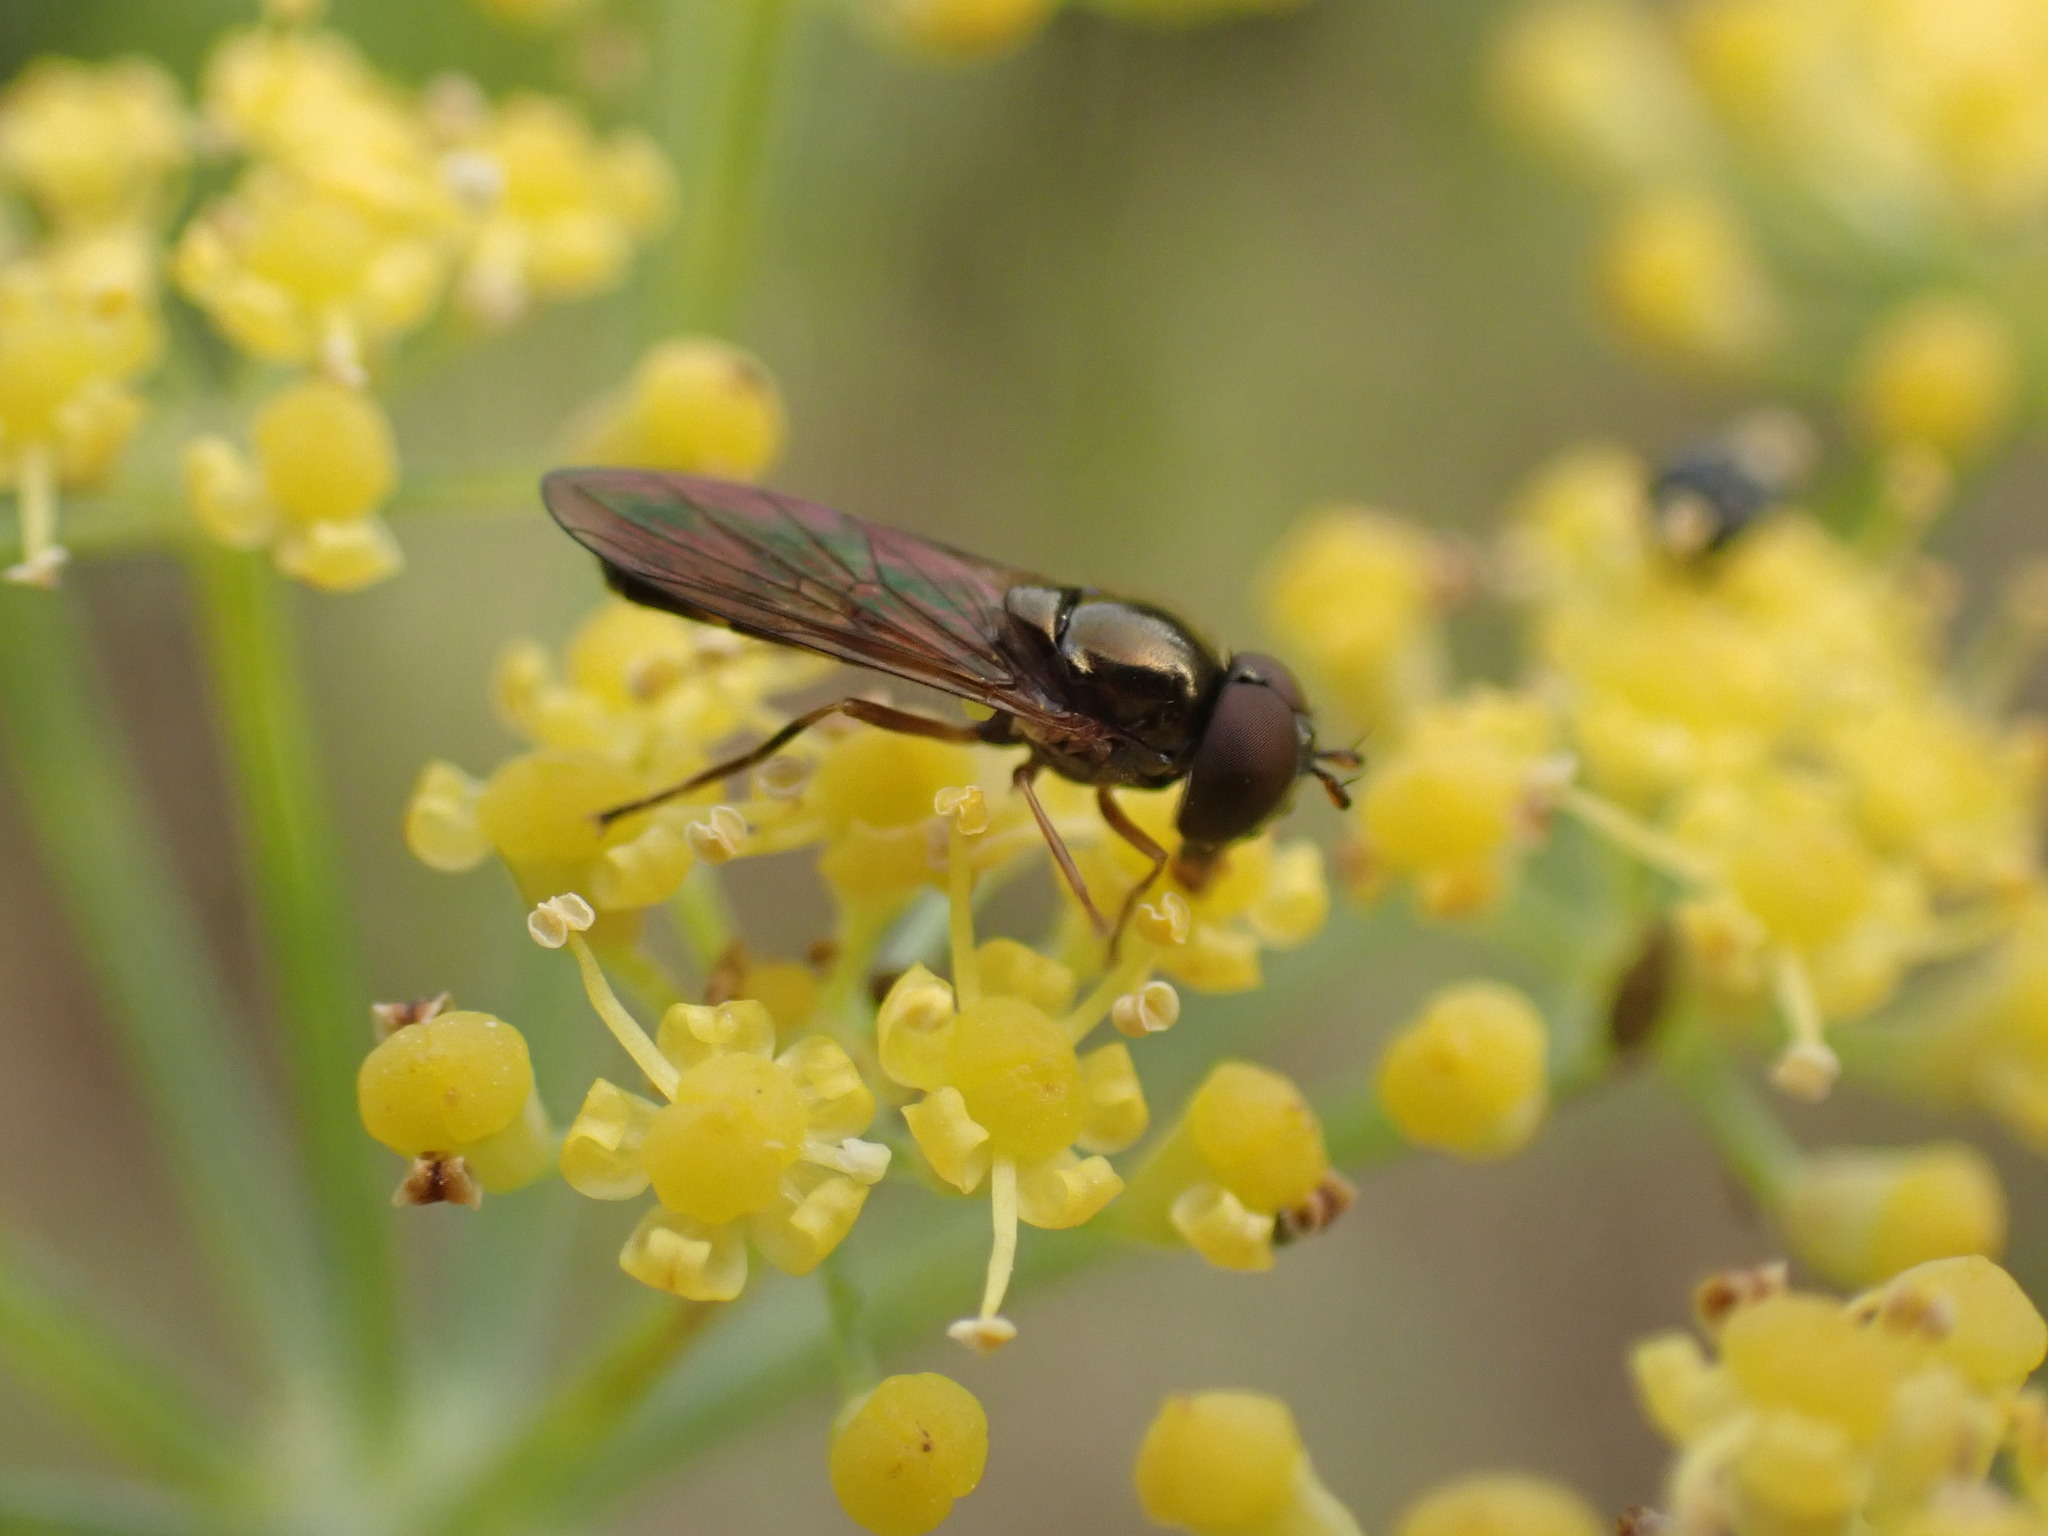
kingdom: Animalia
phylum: Arthropoda
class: Insecta
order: Diptera
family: Syrphidae
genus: Melanostoma
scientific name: Melanostoma fasciatum
